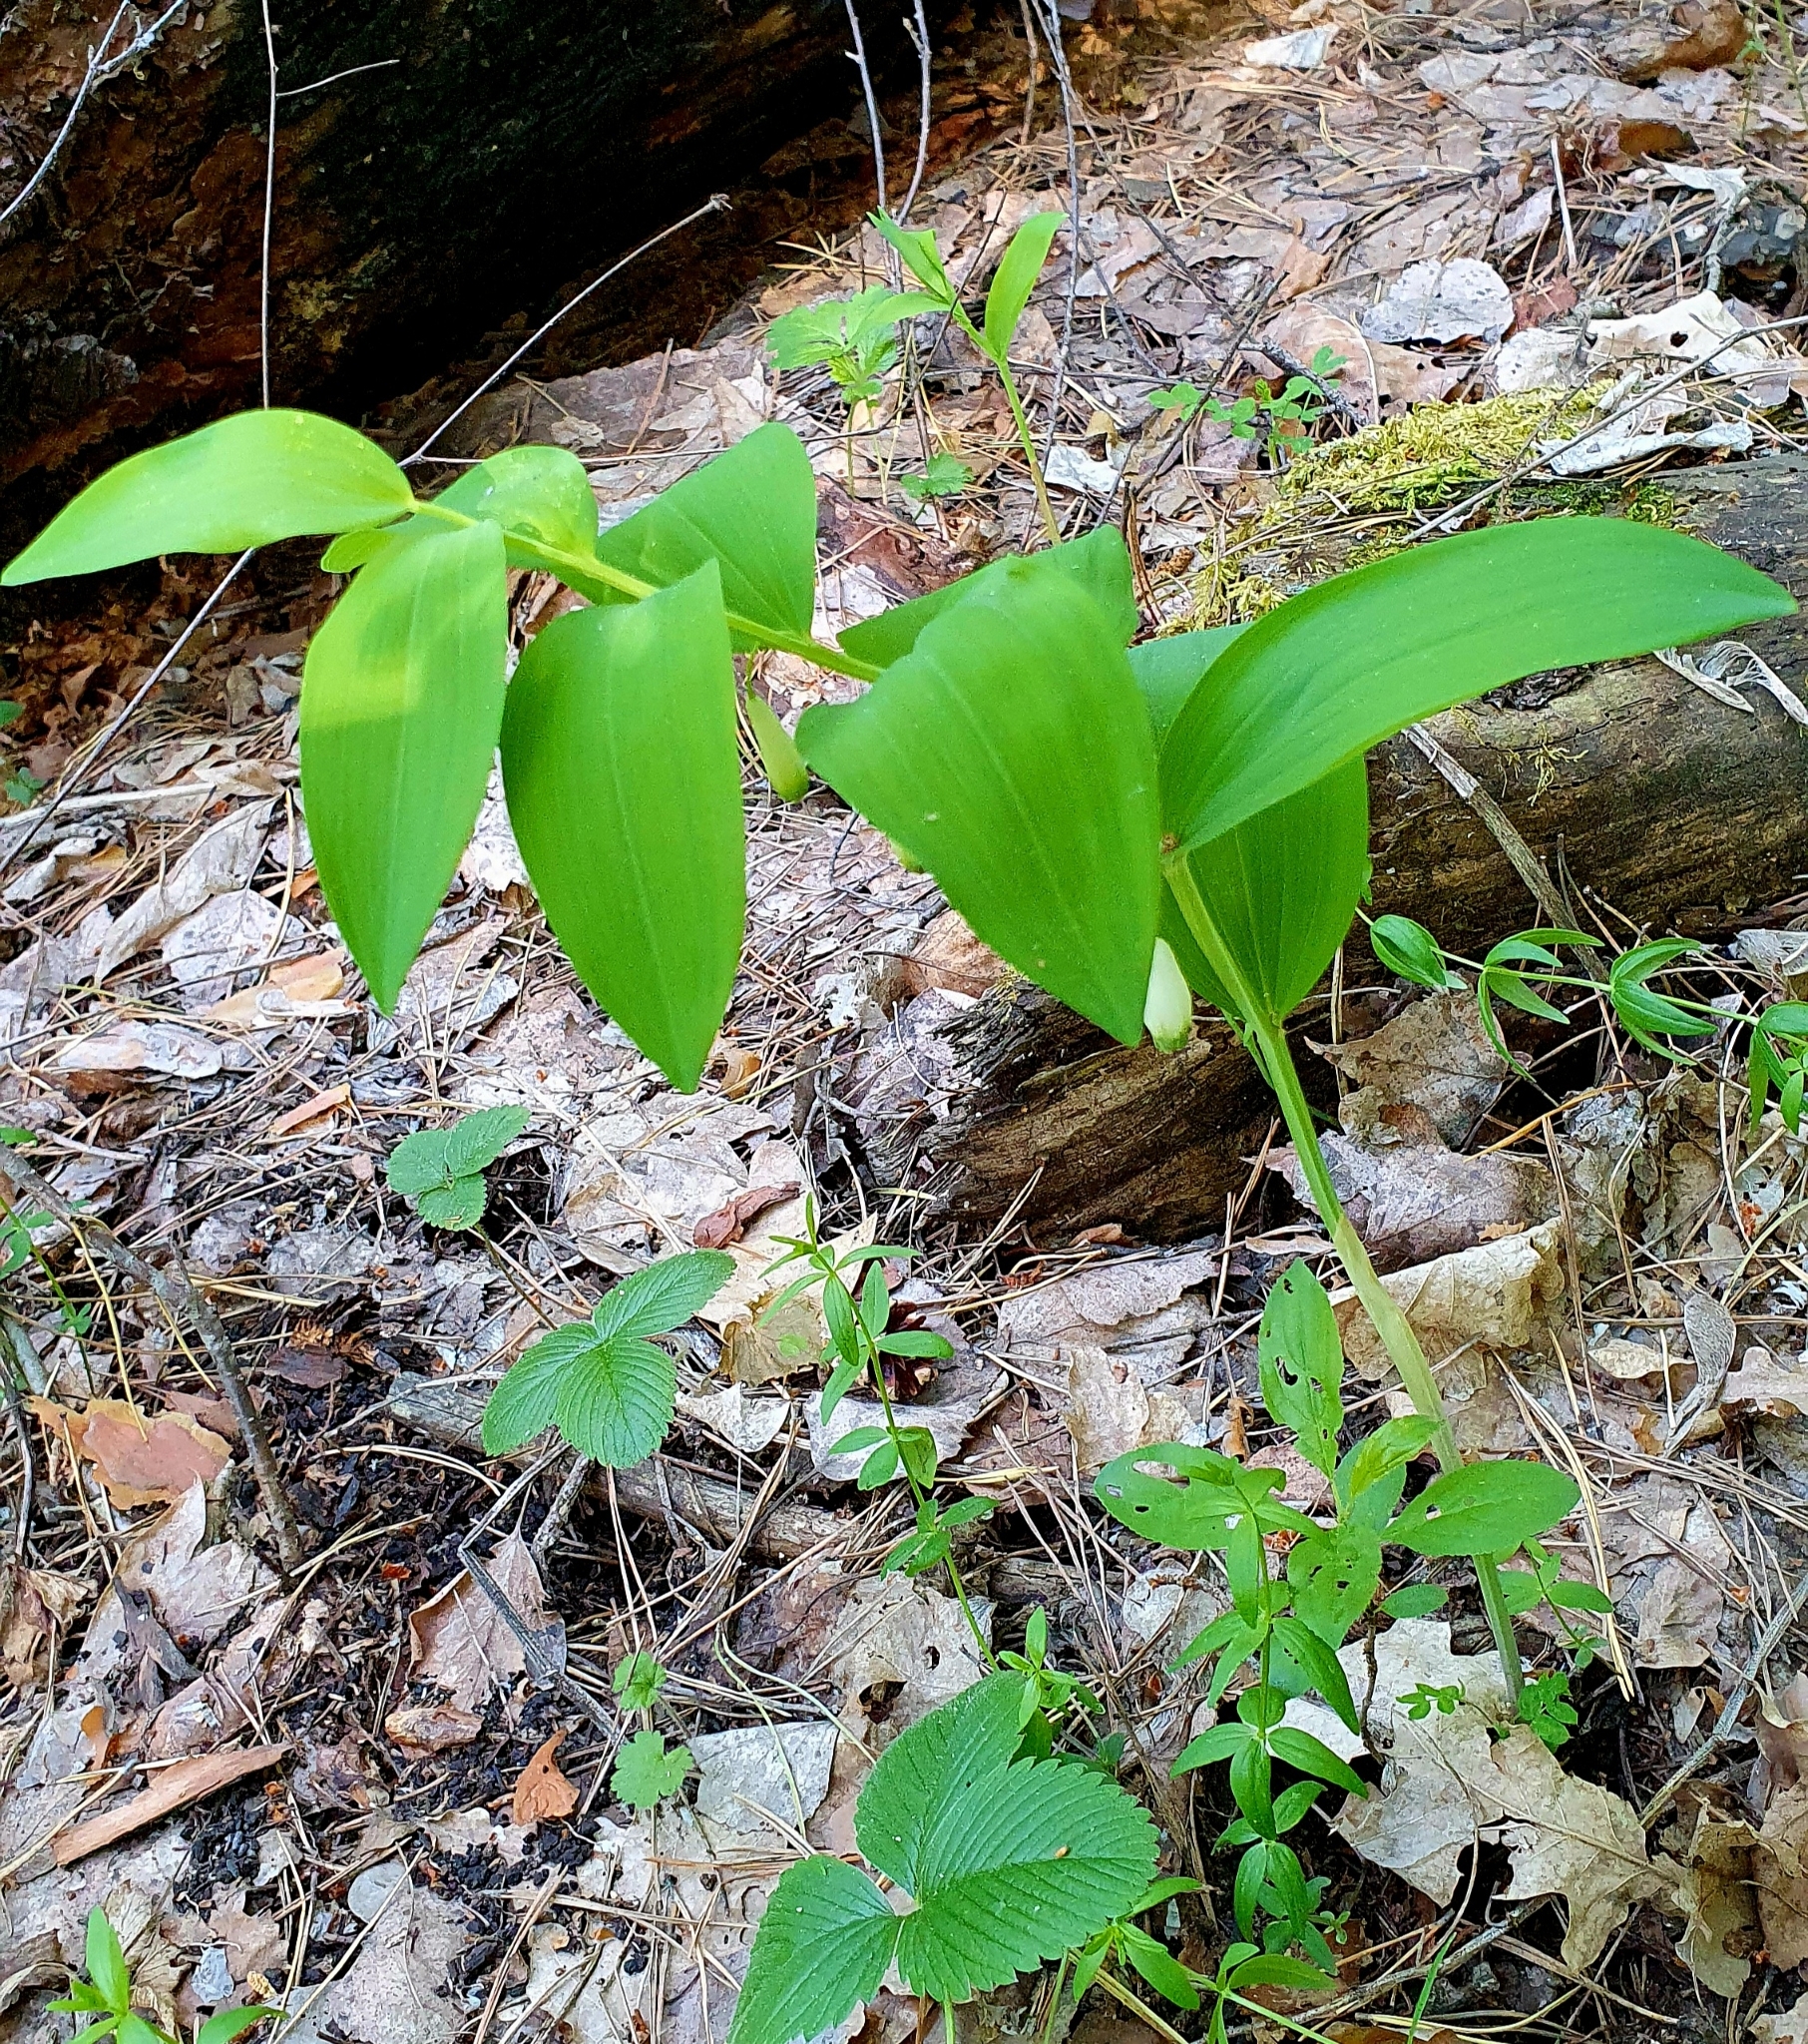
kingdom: Plantae
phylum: Tracheophyta
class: Liliopsida
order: Asparagales
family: Asparagaceae
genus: Polygonatum
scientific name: Polygonatum odoratum
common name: Angular solomon's-seal
